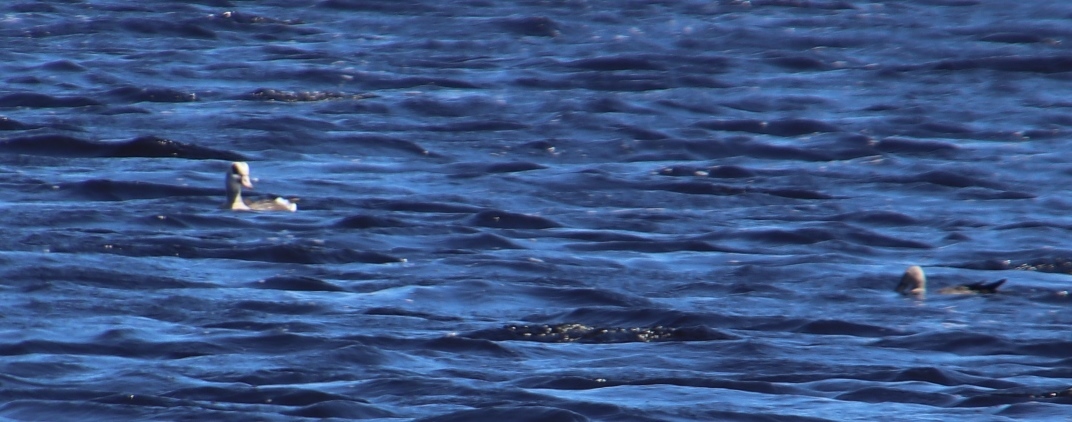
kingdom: Animalia
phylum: Chordata
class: Aves
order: Anseriformes
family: Anatidae
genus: Alopochen
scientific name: Alopochen aegyptiaca
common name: Egyptian goose
